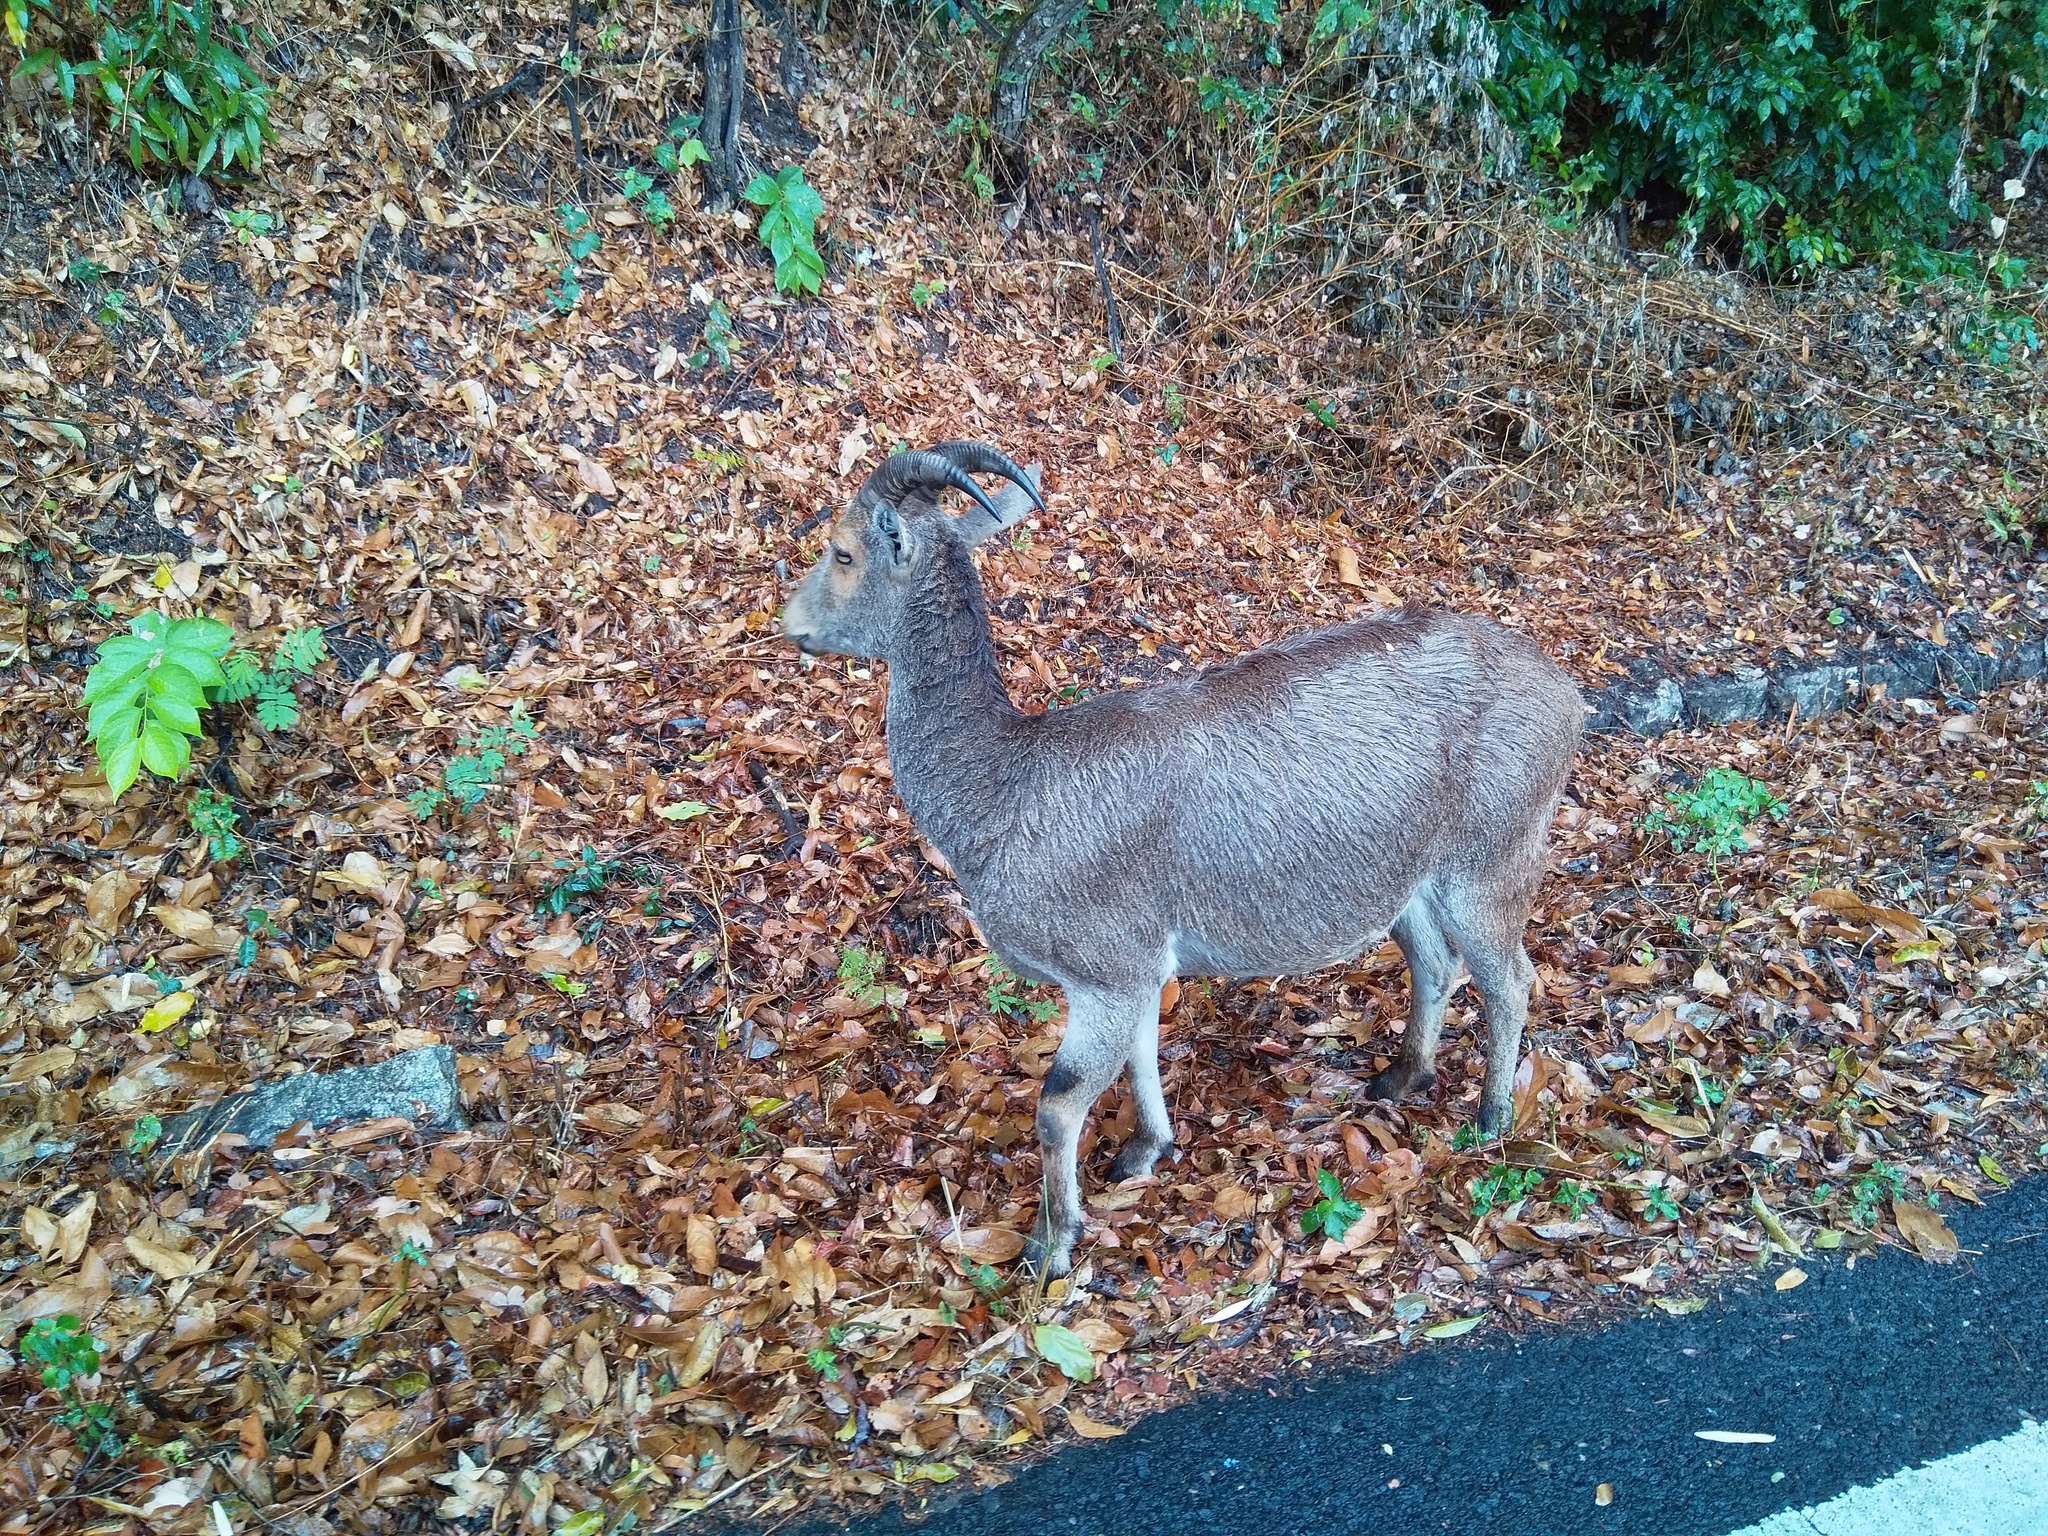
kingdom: Animalia
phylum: Chordata
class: Mammalia
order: Artiodactyla
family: Bovidae
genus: Hemitragus
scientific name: Hemitragus hylocrius
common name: Nilgiri tahr
